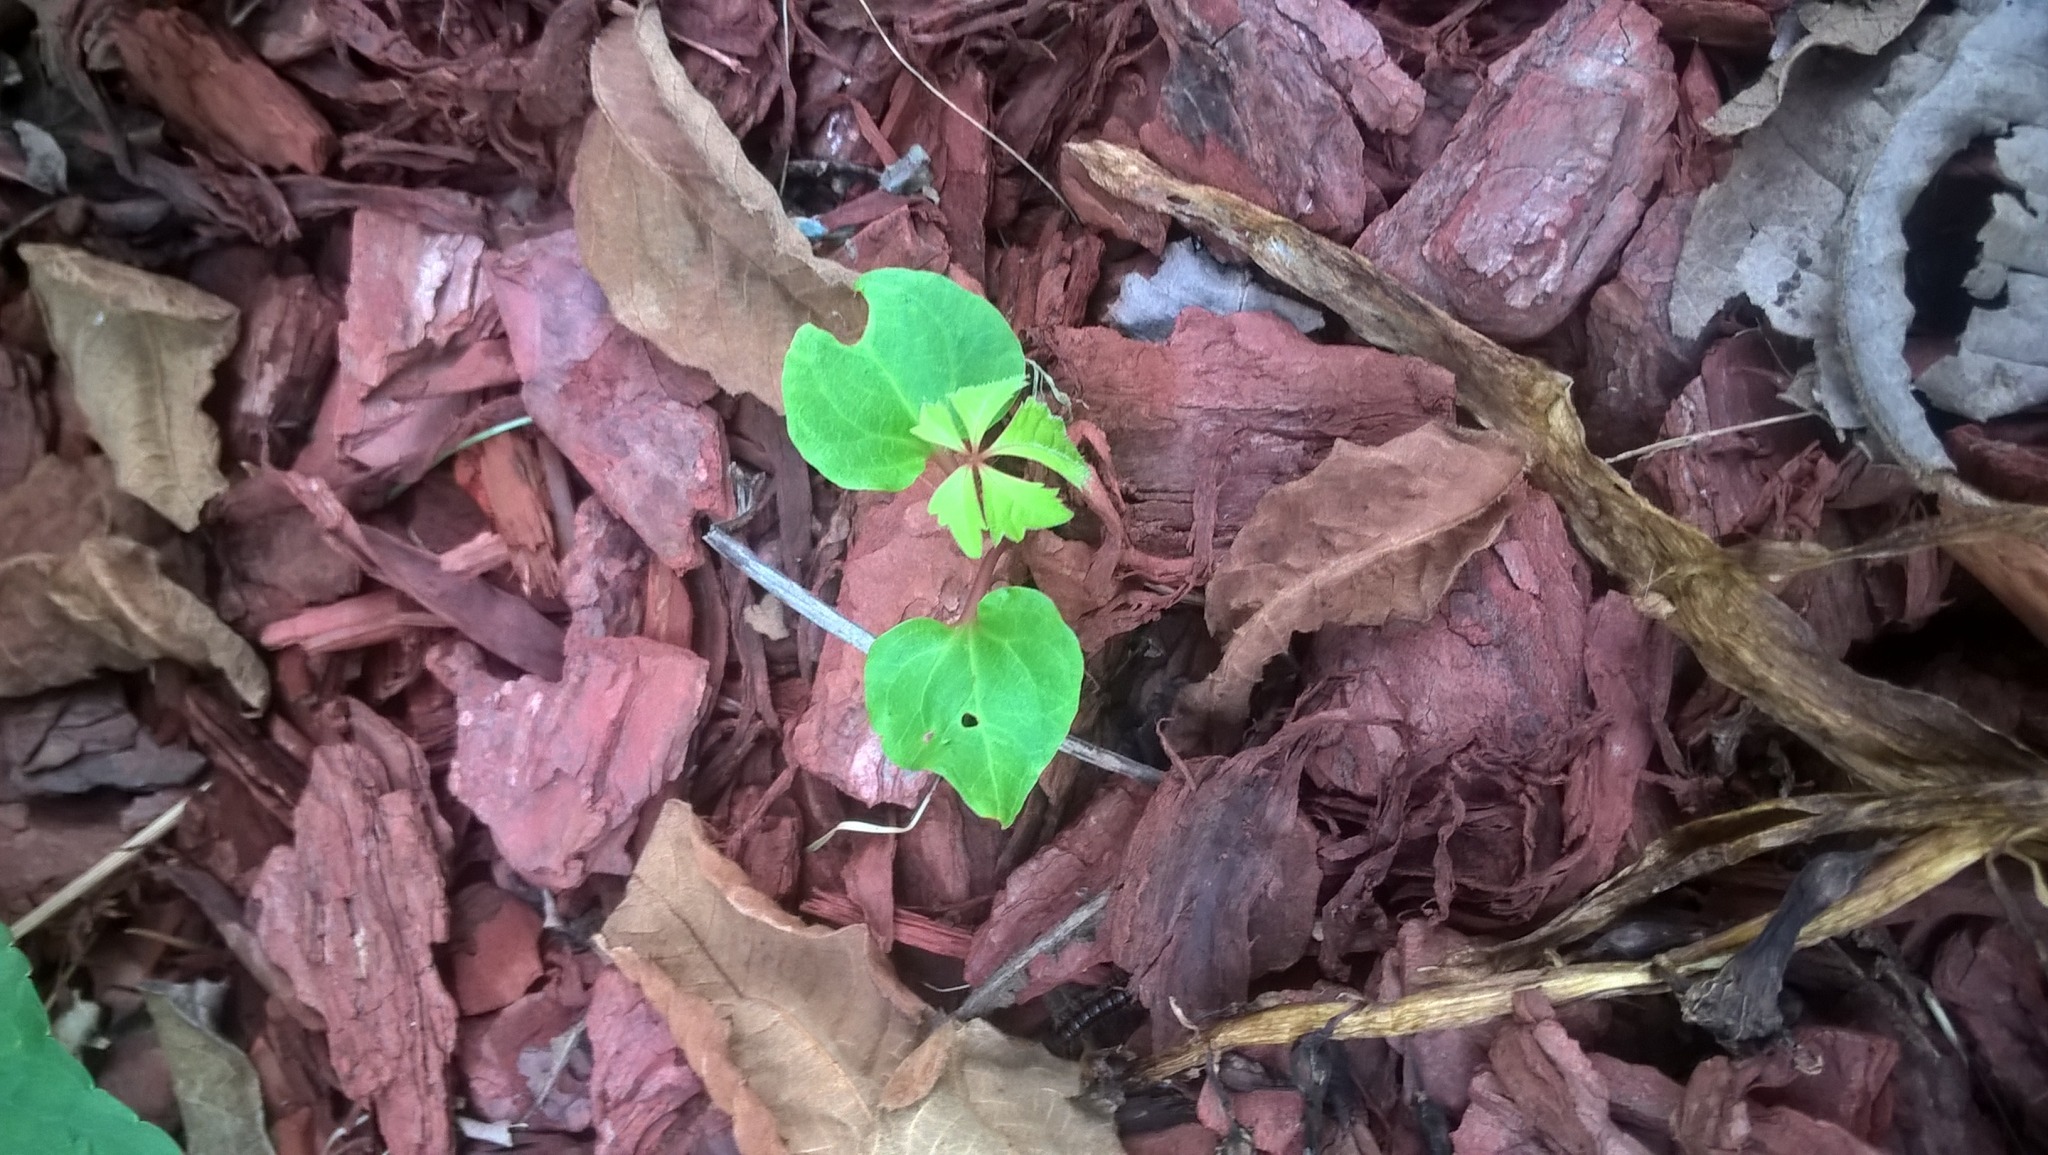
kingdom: Plantae
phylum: Tracheophyta
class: Magnoliopsida
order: Vitales
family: Vitaceae
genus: Parthenocissus
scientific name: Parthenocissus quinquefolia
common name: Virginia-creeper
